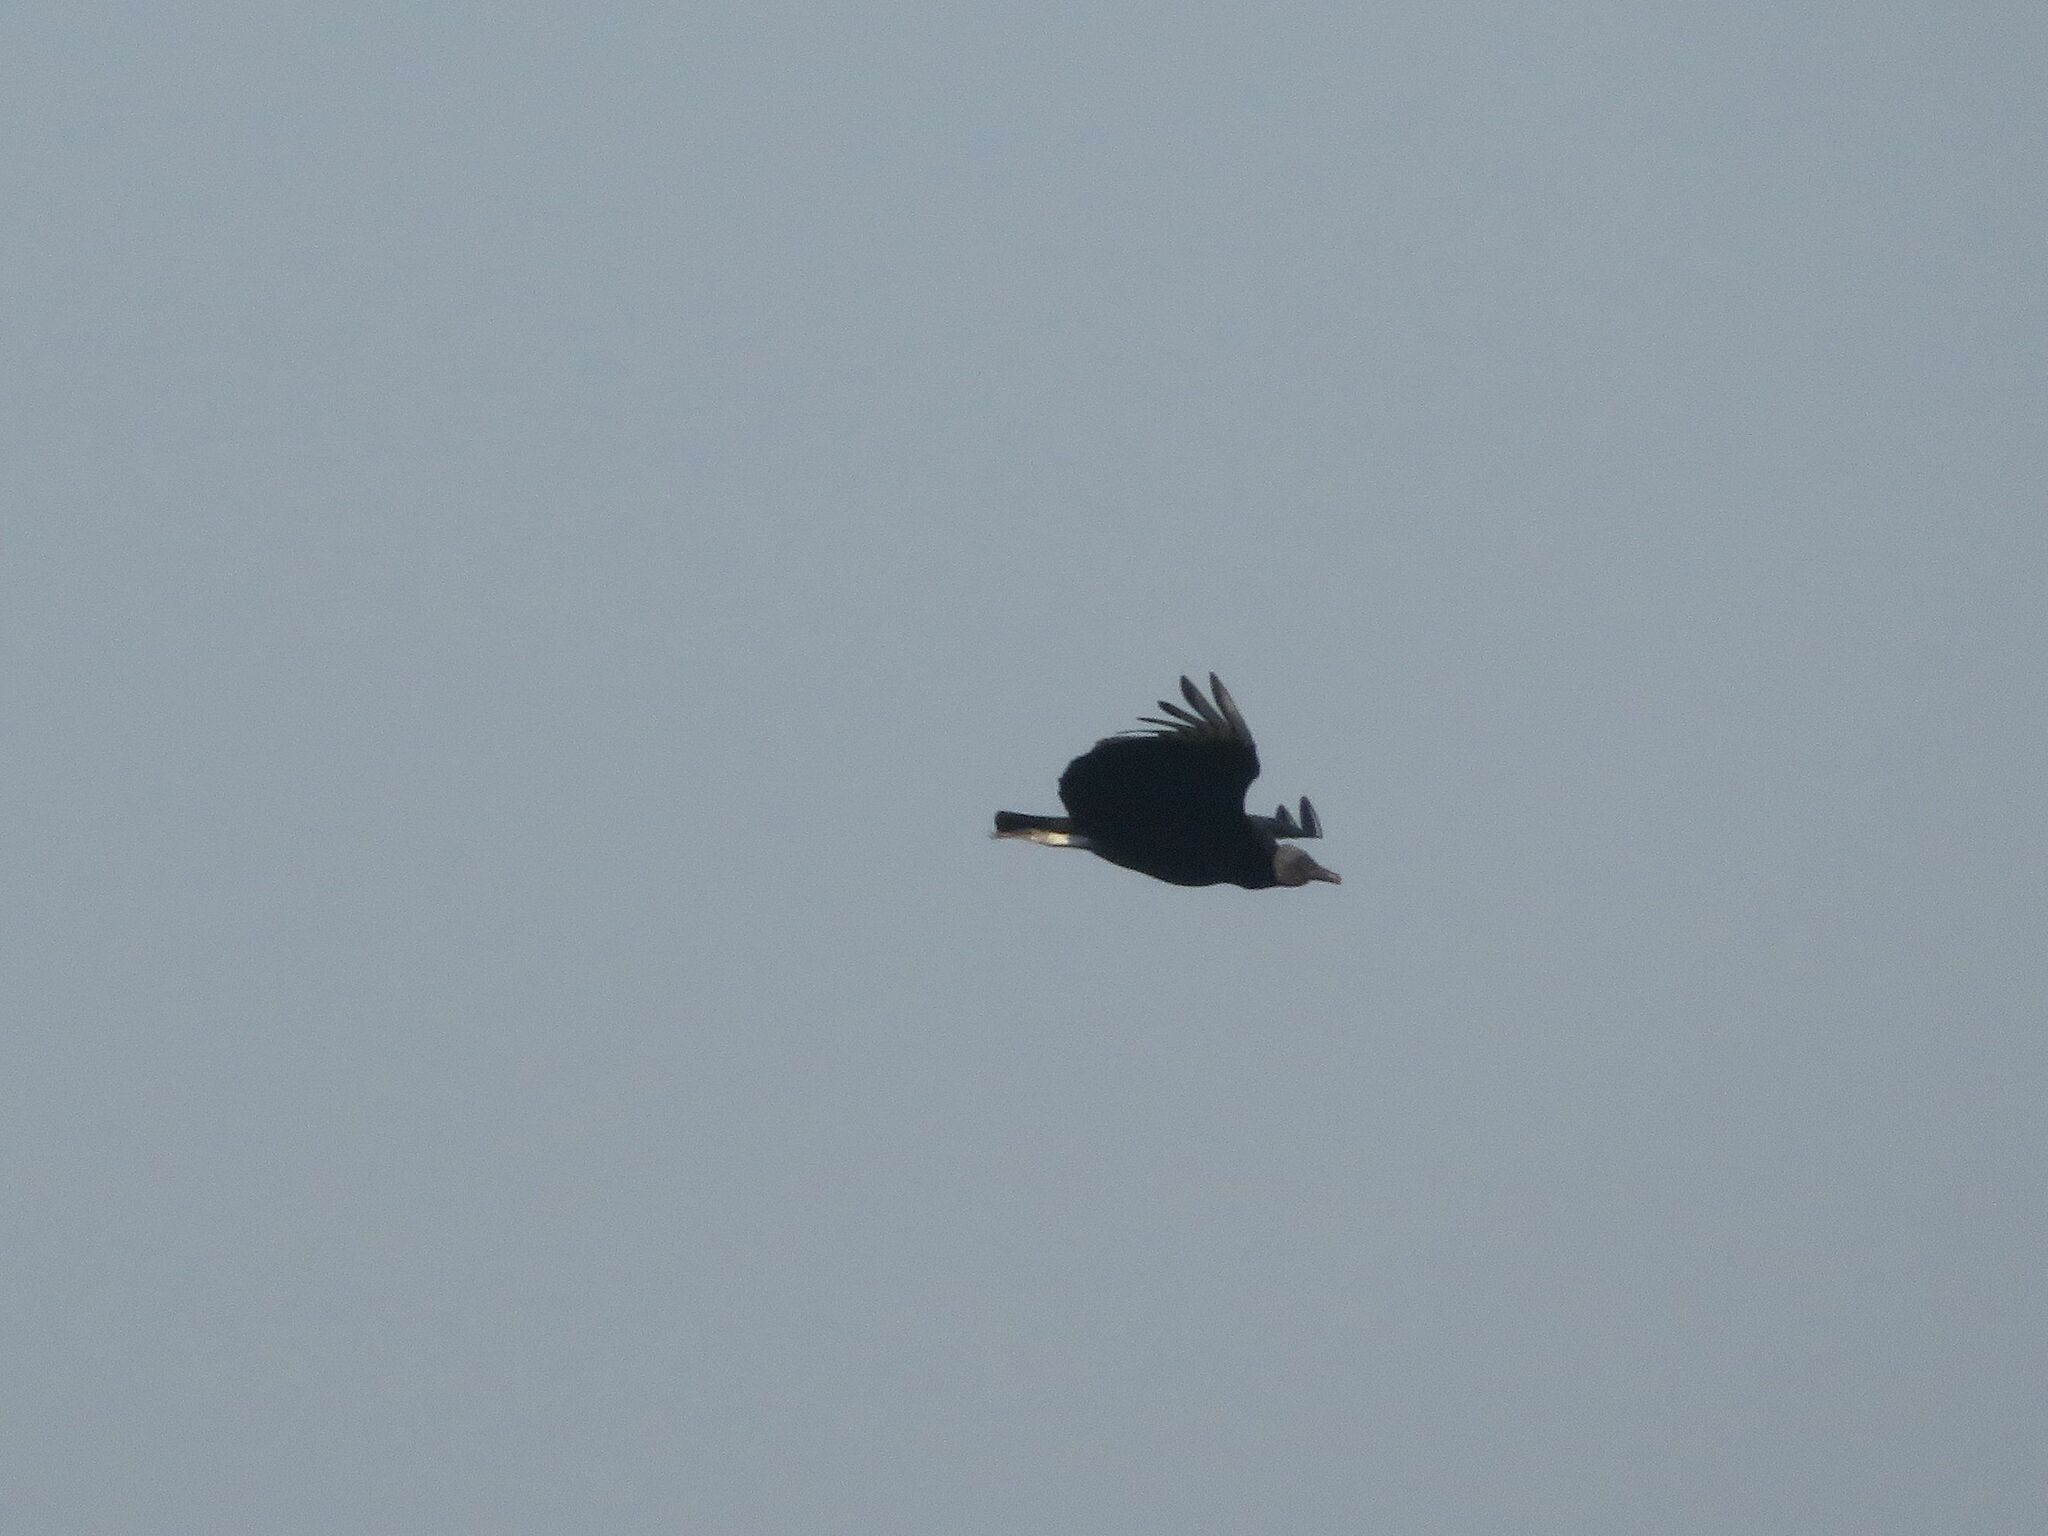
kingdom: Animalia
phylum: Chordata
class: Aves
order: Accipitriformes
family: Cathartidae
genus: Coragyps
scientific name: Coragyps atratus
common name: Black vulture
